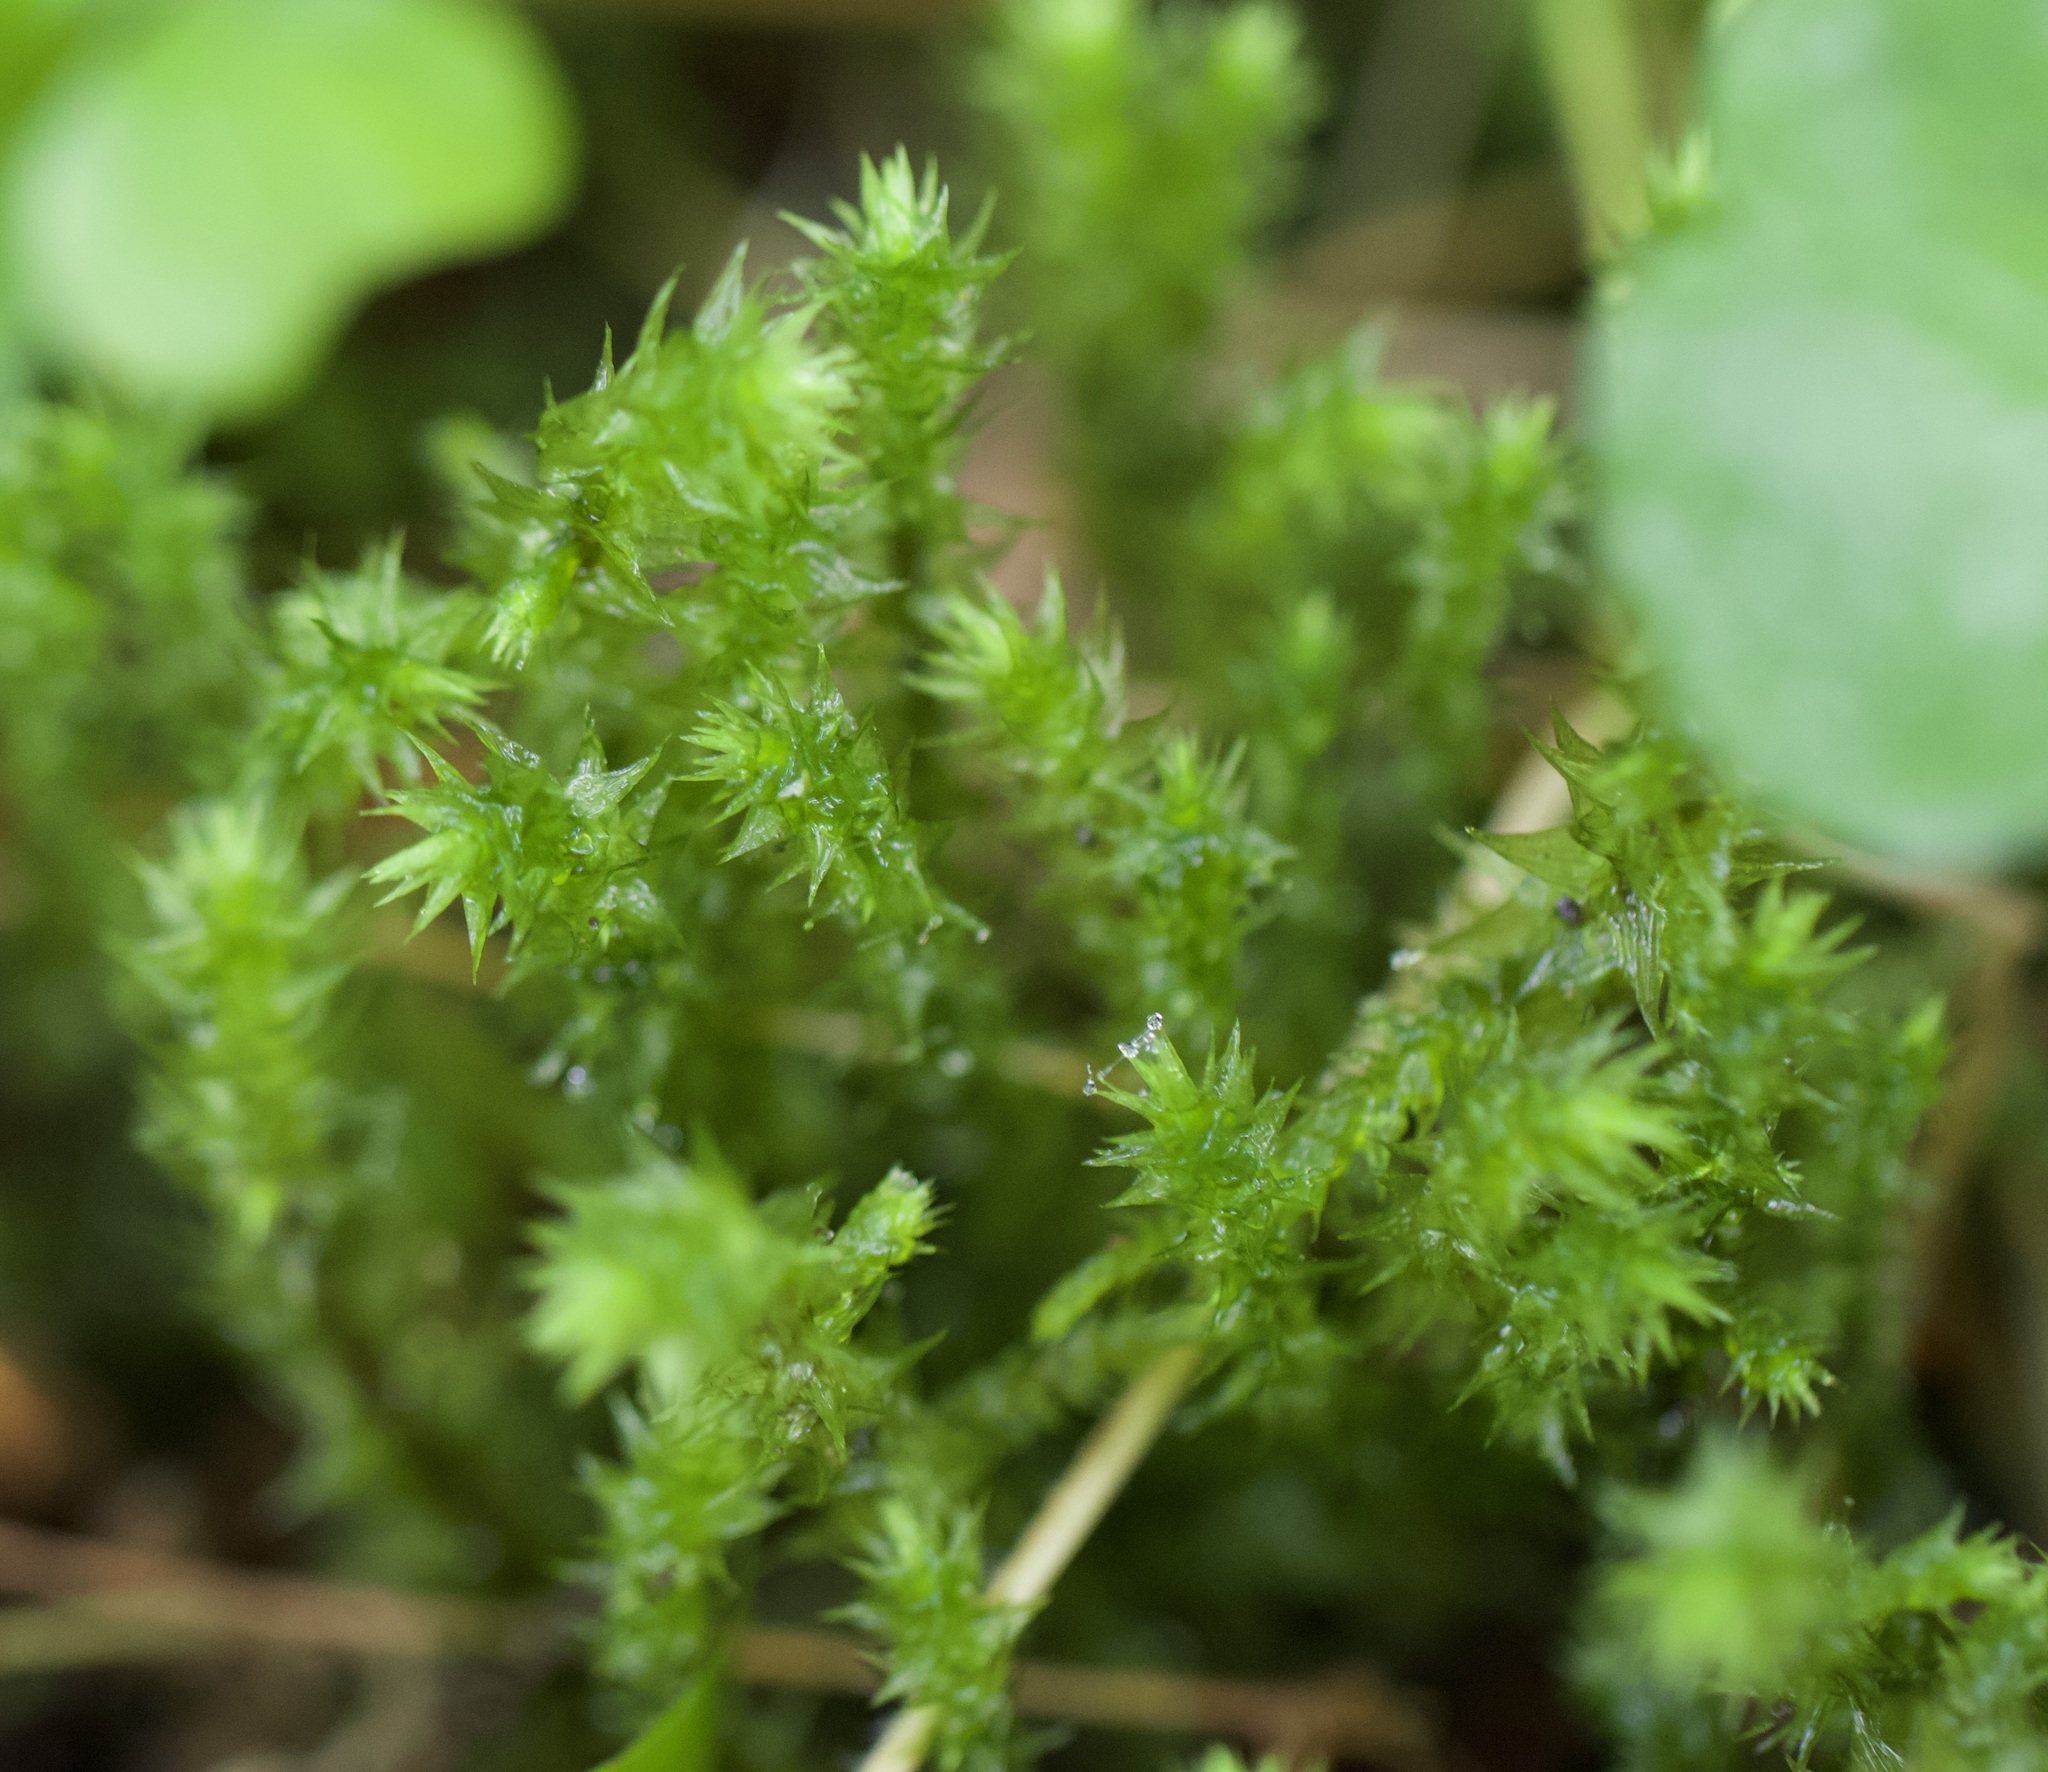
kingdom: Plantae
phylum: Bryophyta
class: Bryopsida
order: Hypnales
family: Hylocomiaceae
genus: Hylocomiadelphus
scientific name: Hylocomiadelphus triquetrus
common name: Rough goose neck moss
